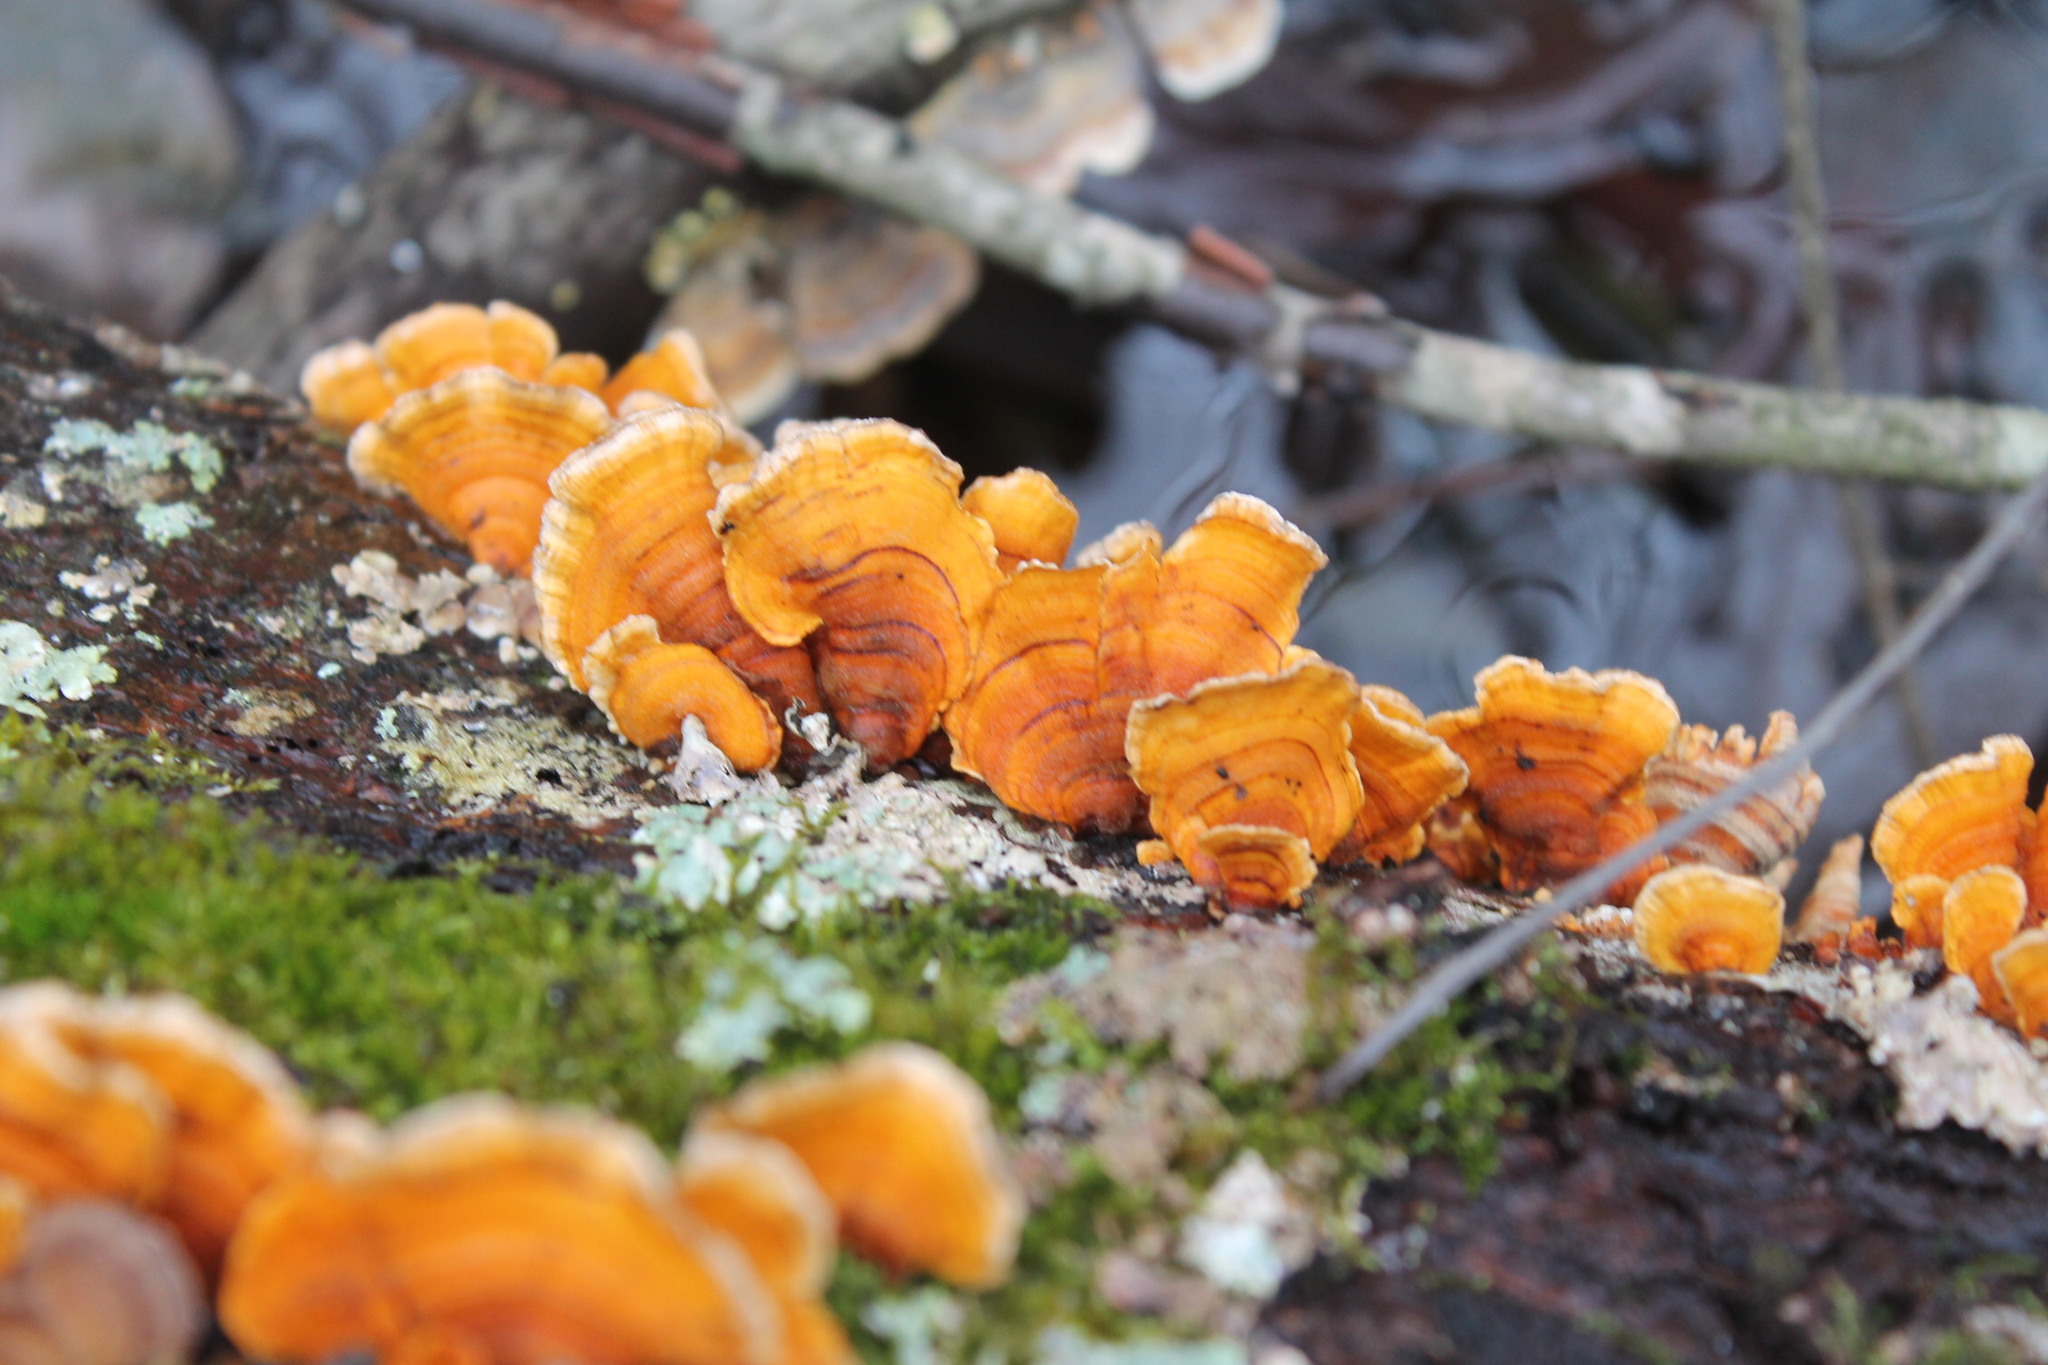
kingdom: Fungi
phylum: Basidiomycota
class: Agaricomycetes
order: Russulales
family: Stereaceae
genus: Stereum
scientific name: Stereum complicatum
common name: Crowded parchment
